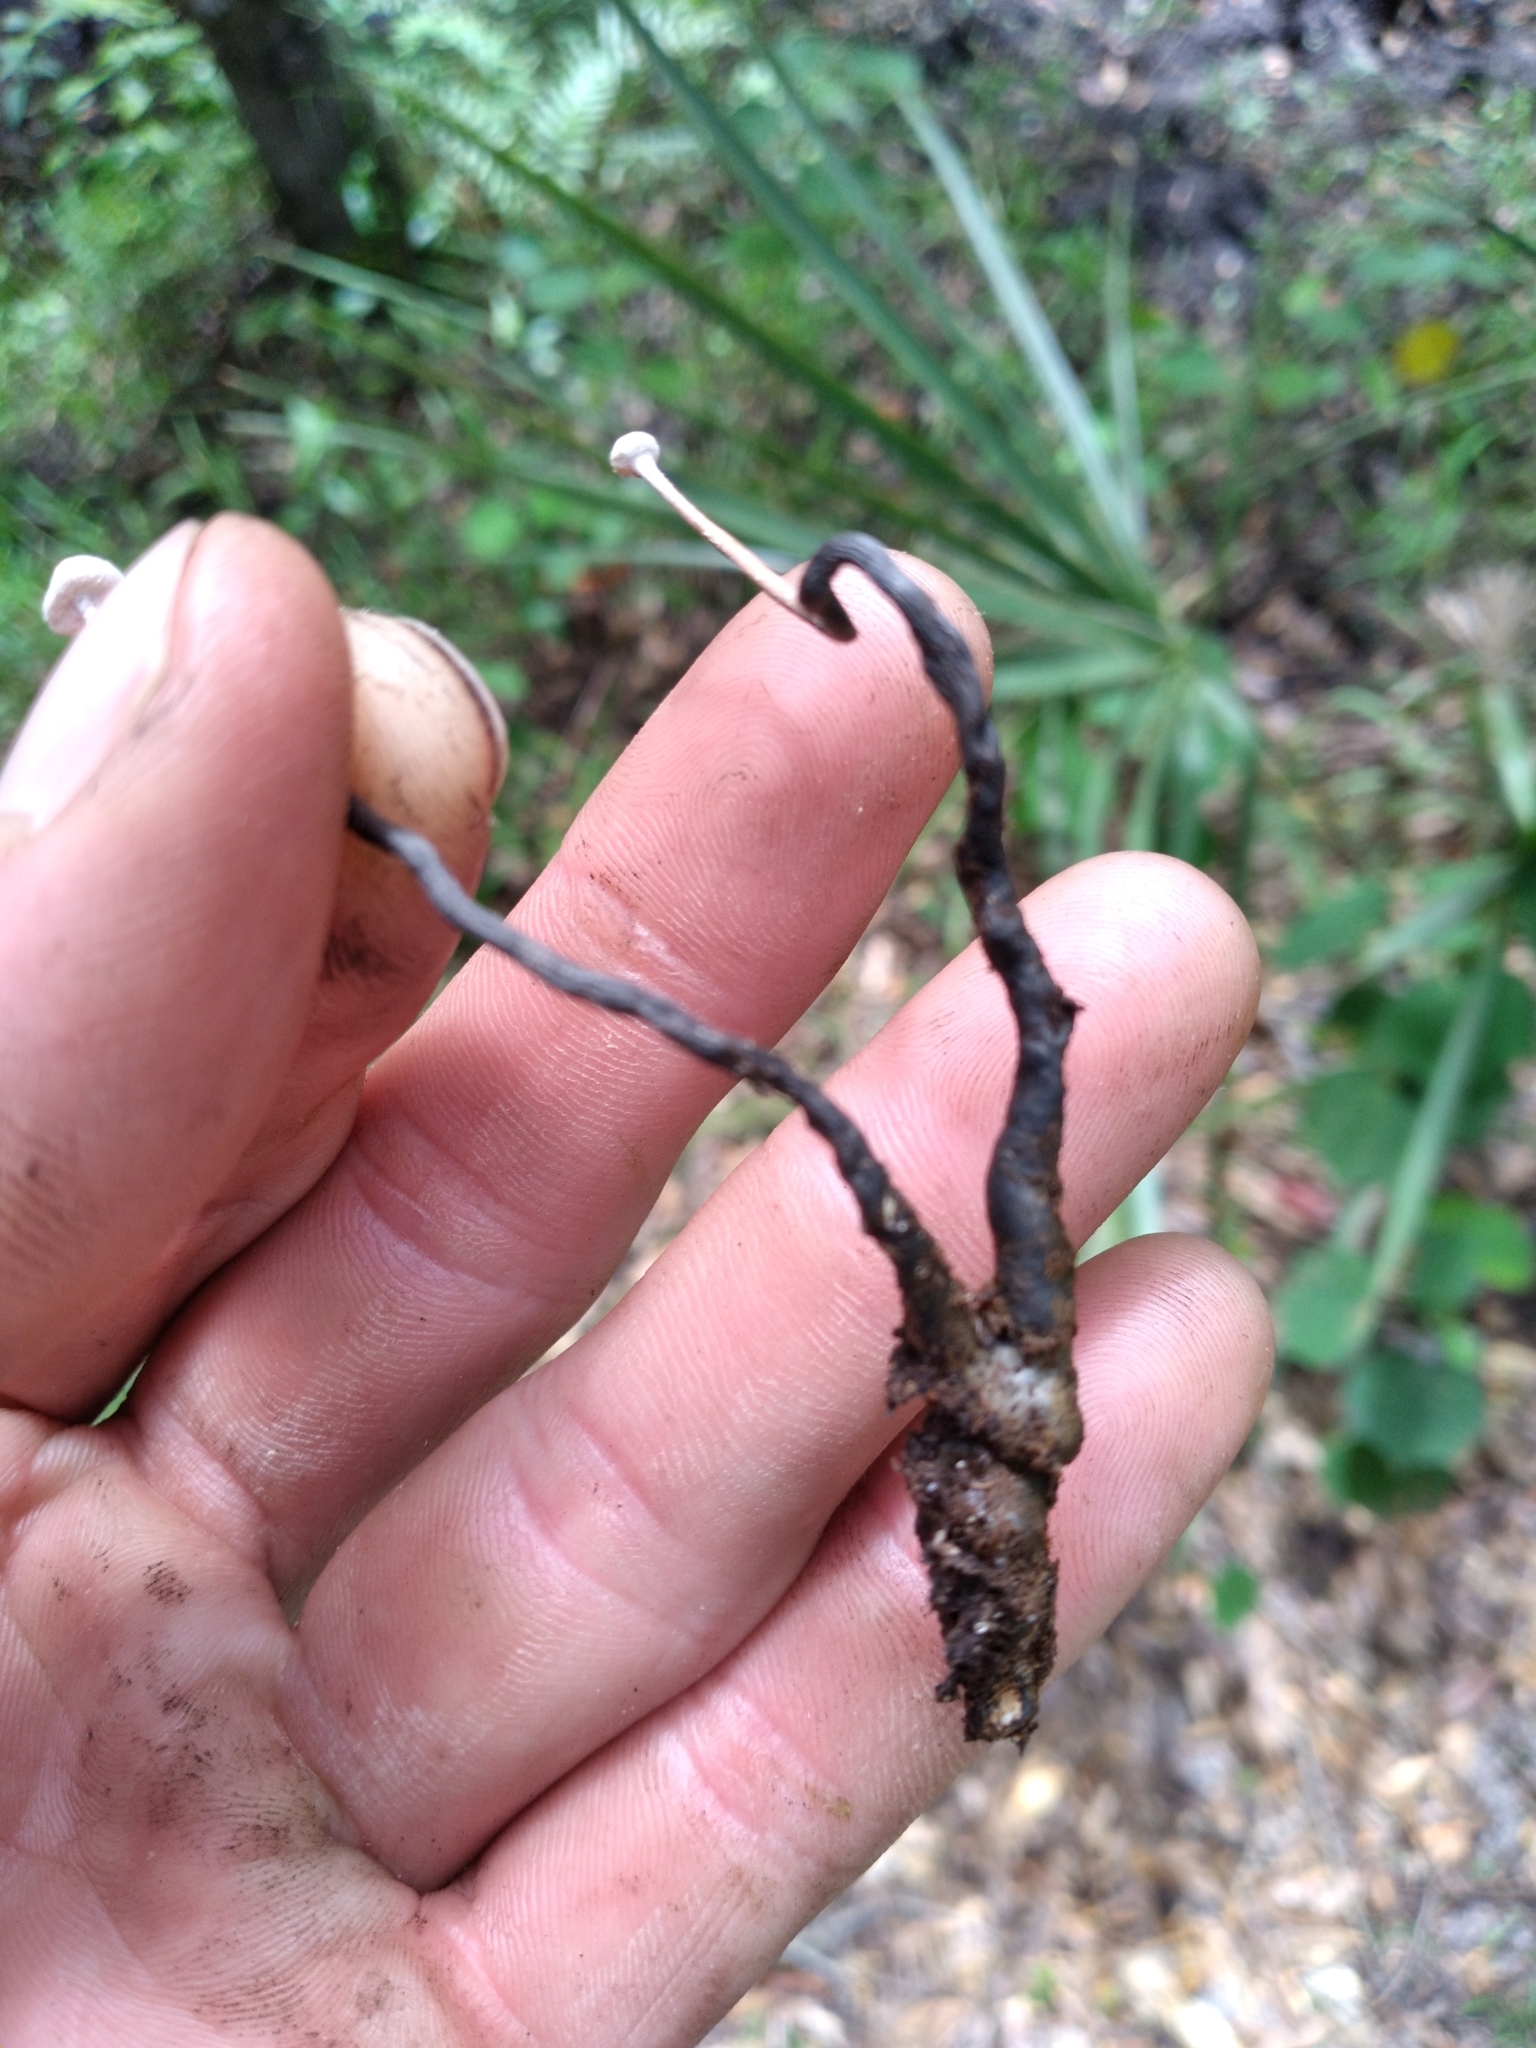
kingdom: Fungi
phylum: Ascomycota
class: Sordariomycetes
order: Xylariales
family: Xylariaceae
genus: Poronia
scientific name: Poronia pileiformis
